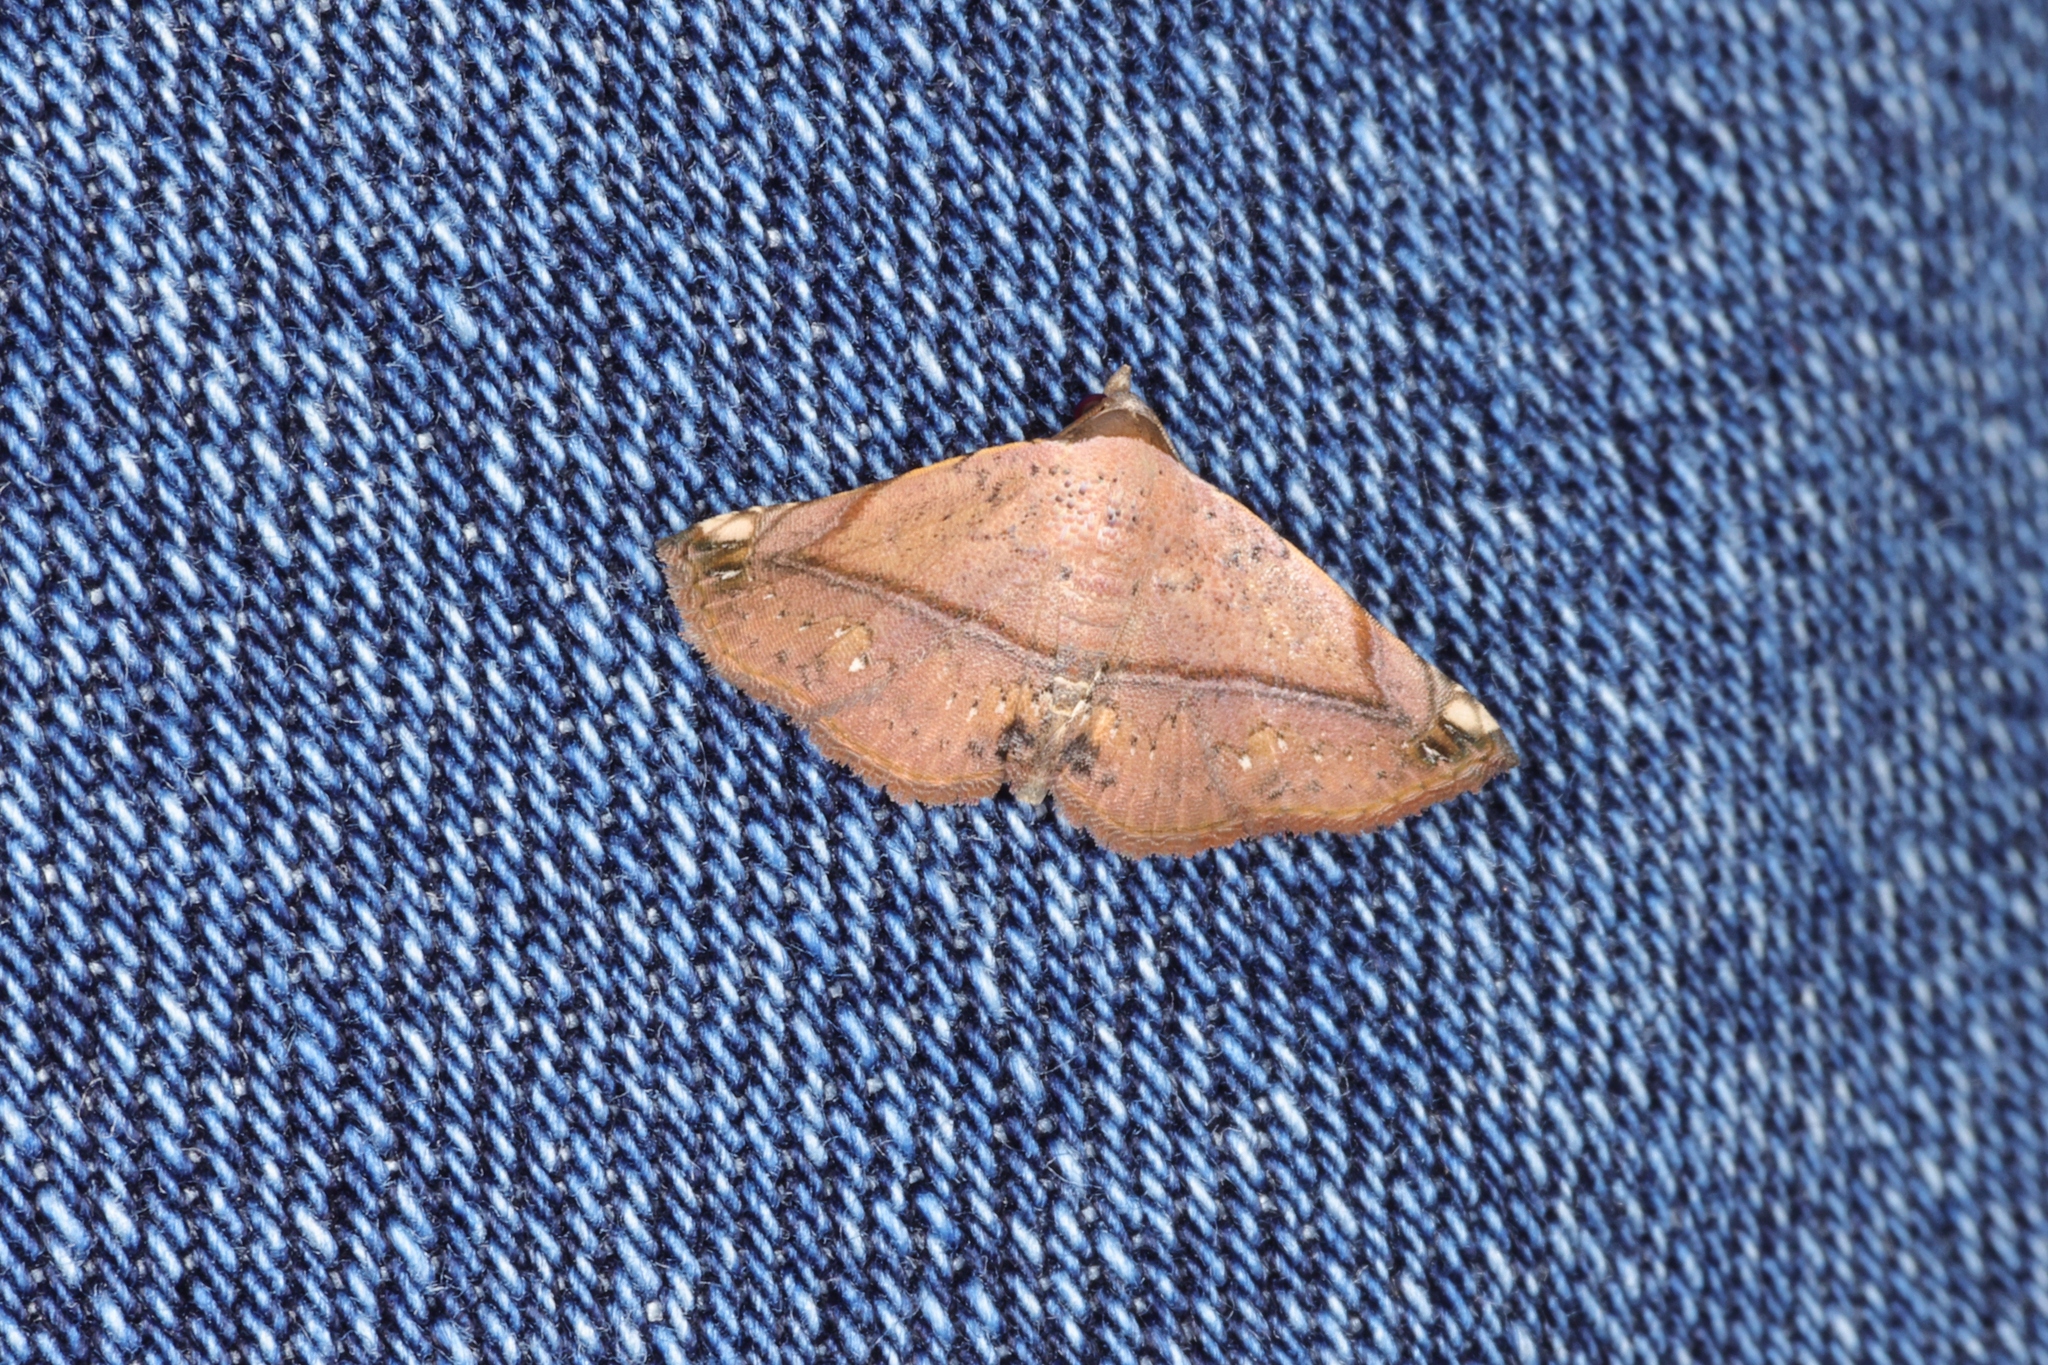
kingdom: Animalia
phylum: Arthropoda
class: Insecta
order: Lepidoptera
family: Noctuidae
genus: Eublemma
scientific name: Eublemma abrupta
